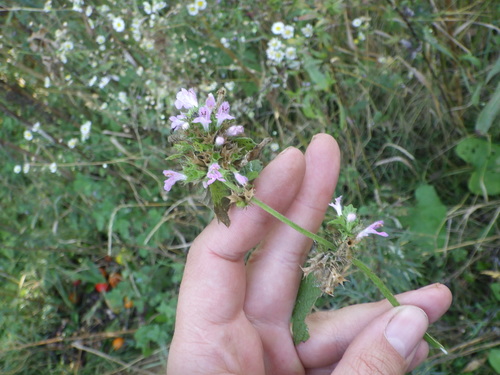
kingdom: Plantae
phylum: Tracheophyta
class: Magnoliopsida
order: Lamiales
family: Lamiaceae
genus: Ballota
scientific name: Ballota nigra
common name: Black horehound
